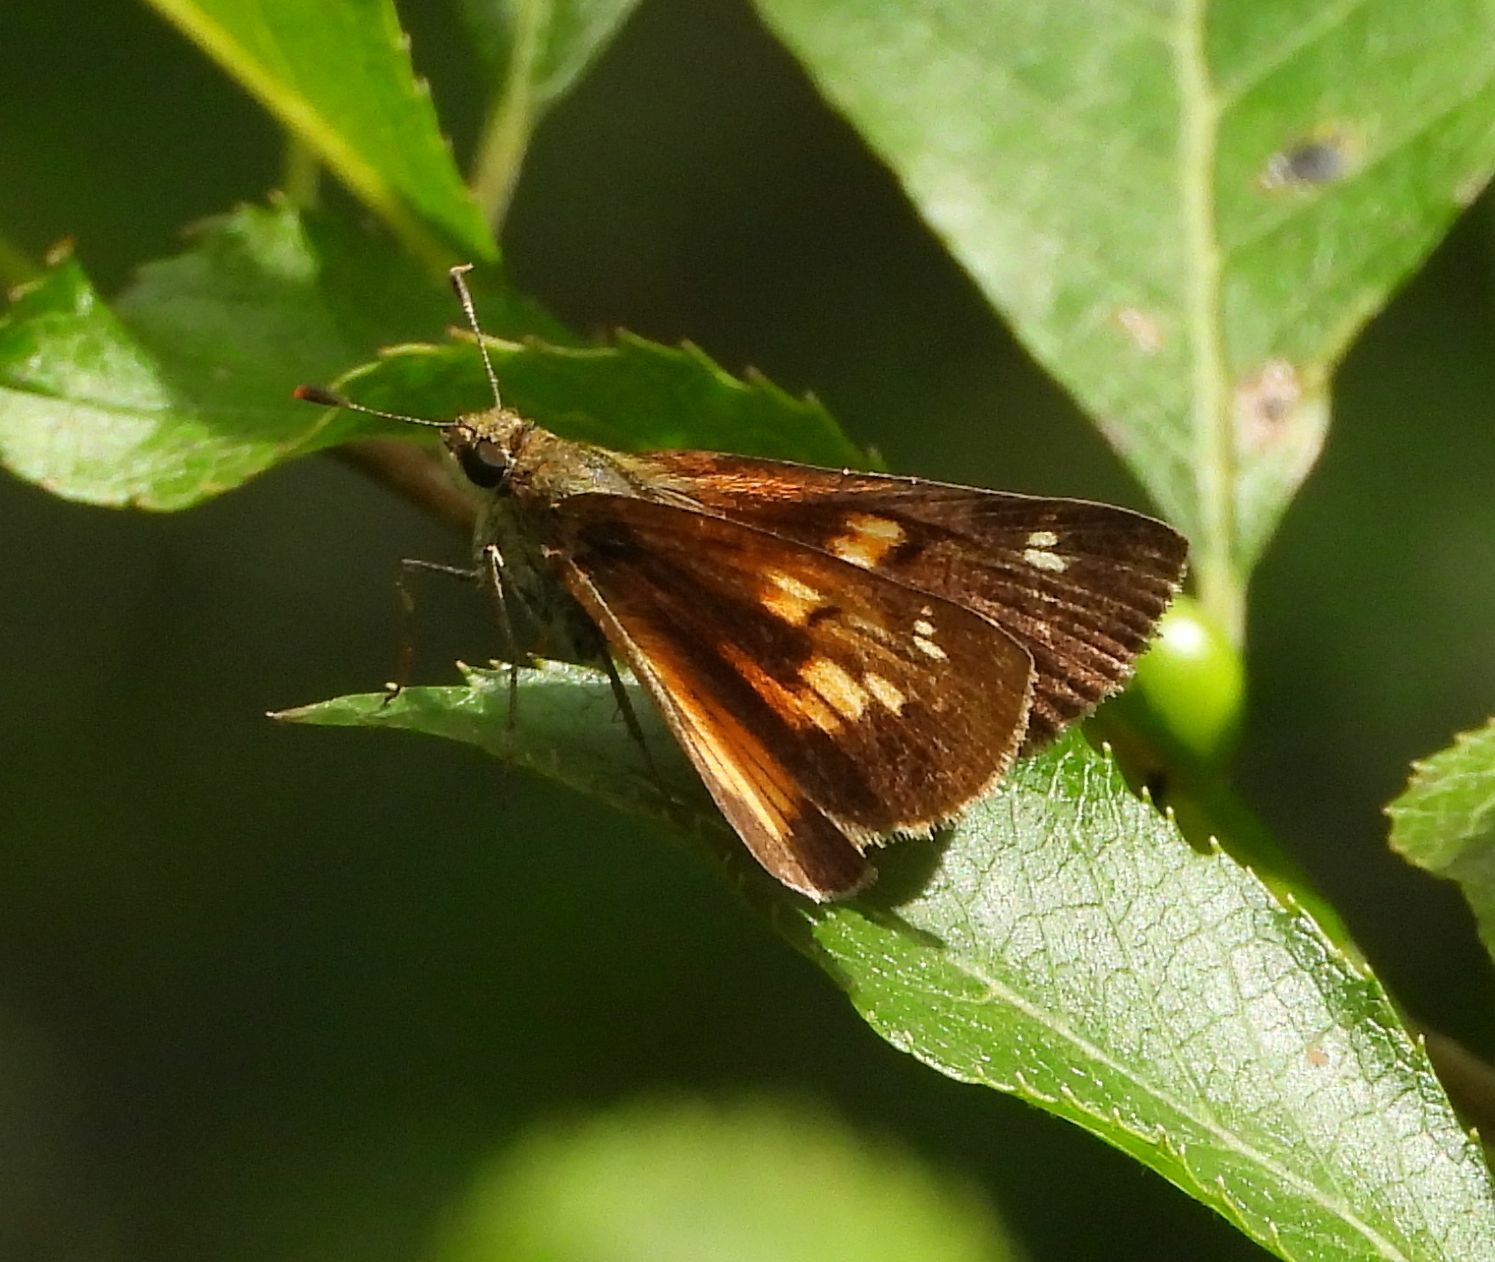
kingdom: Animalia
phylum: Arthropoda
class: Insecta
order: Lepidoptera
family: Hesperiidae
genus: Poanes
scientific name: Poanes viator
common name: Broad-winged skipper
